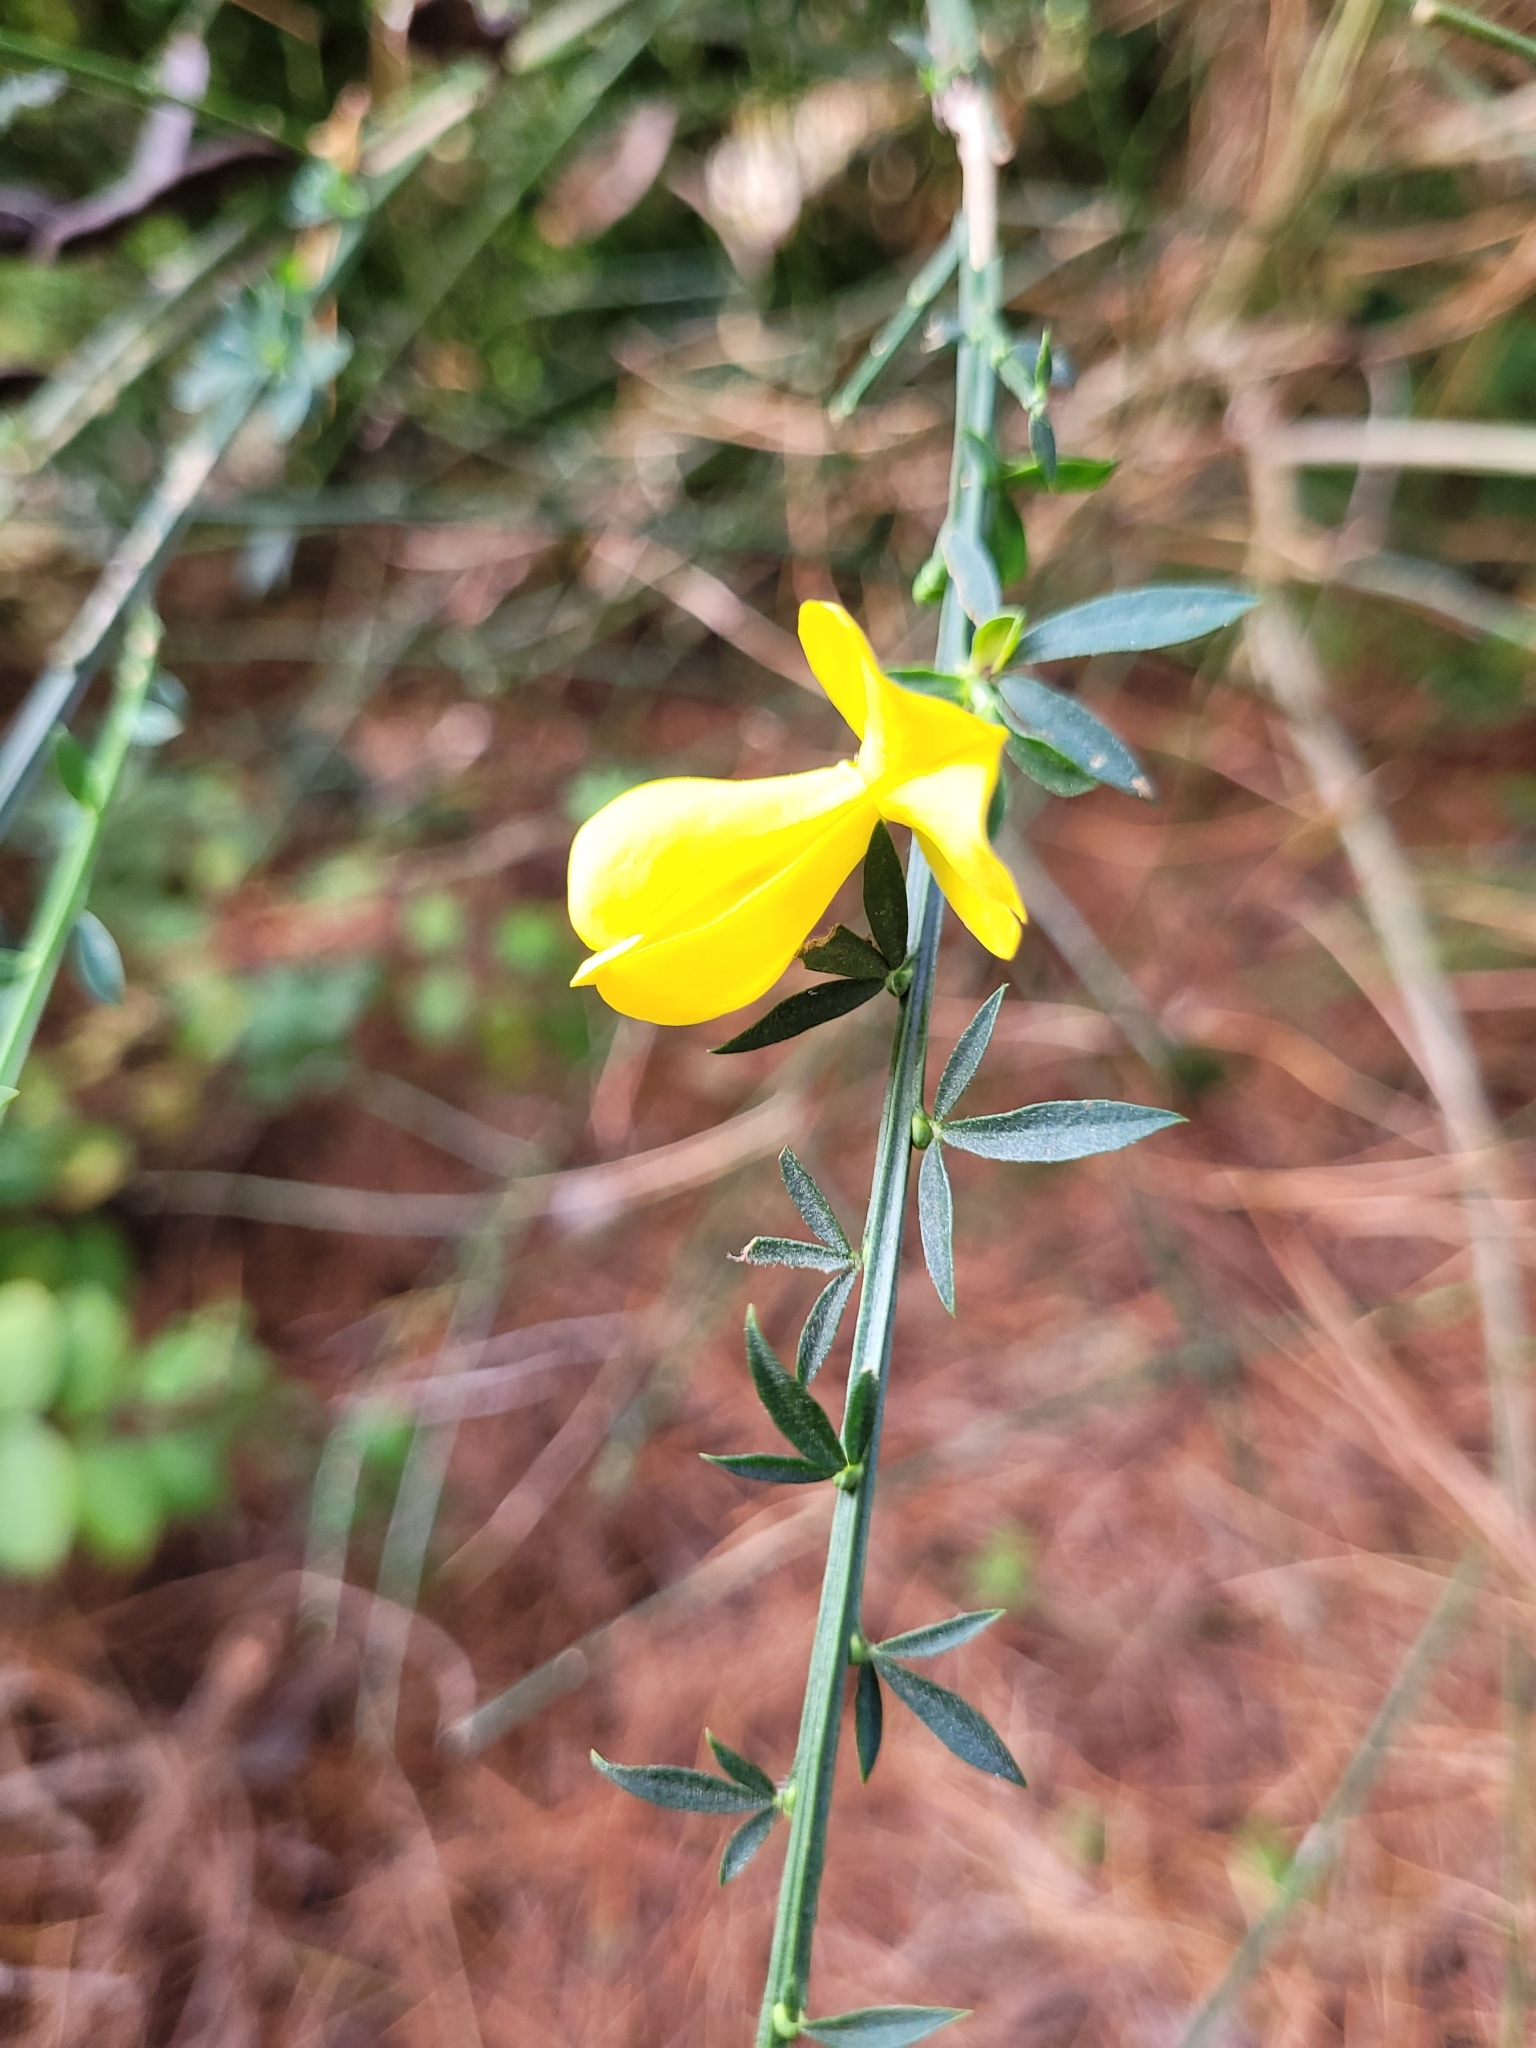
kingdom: Plantae
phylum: Tracheophyta
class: Magnoliopsida
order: Fabales
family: Fabaceae
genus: Cytisus
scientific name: Cytisus scoparius
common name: Scotch broom
